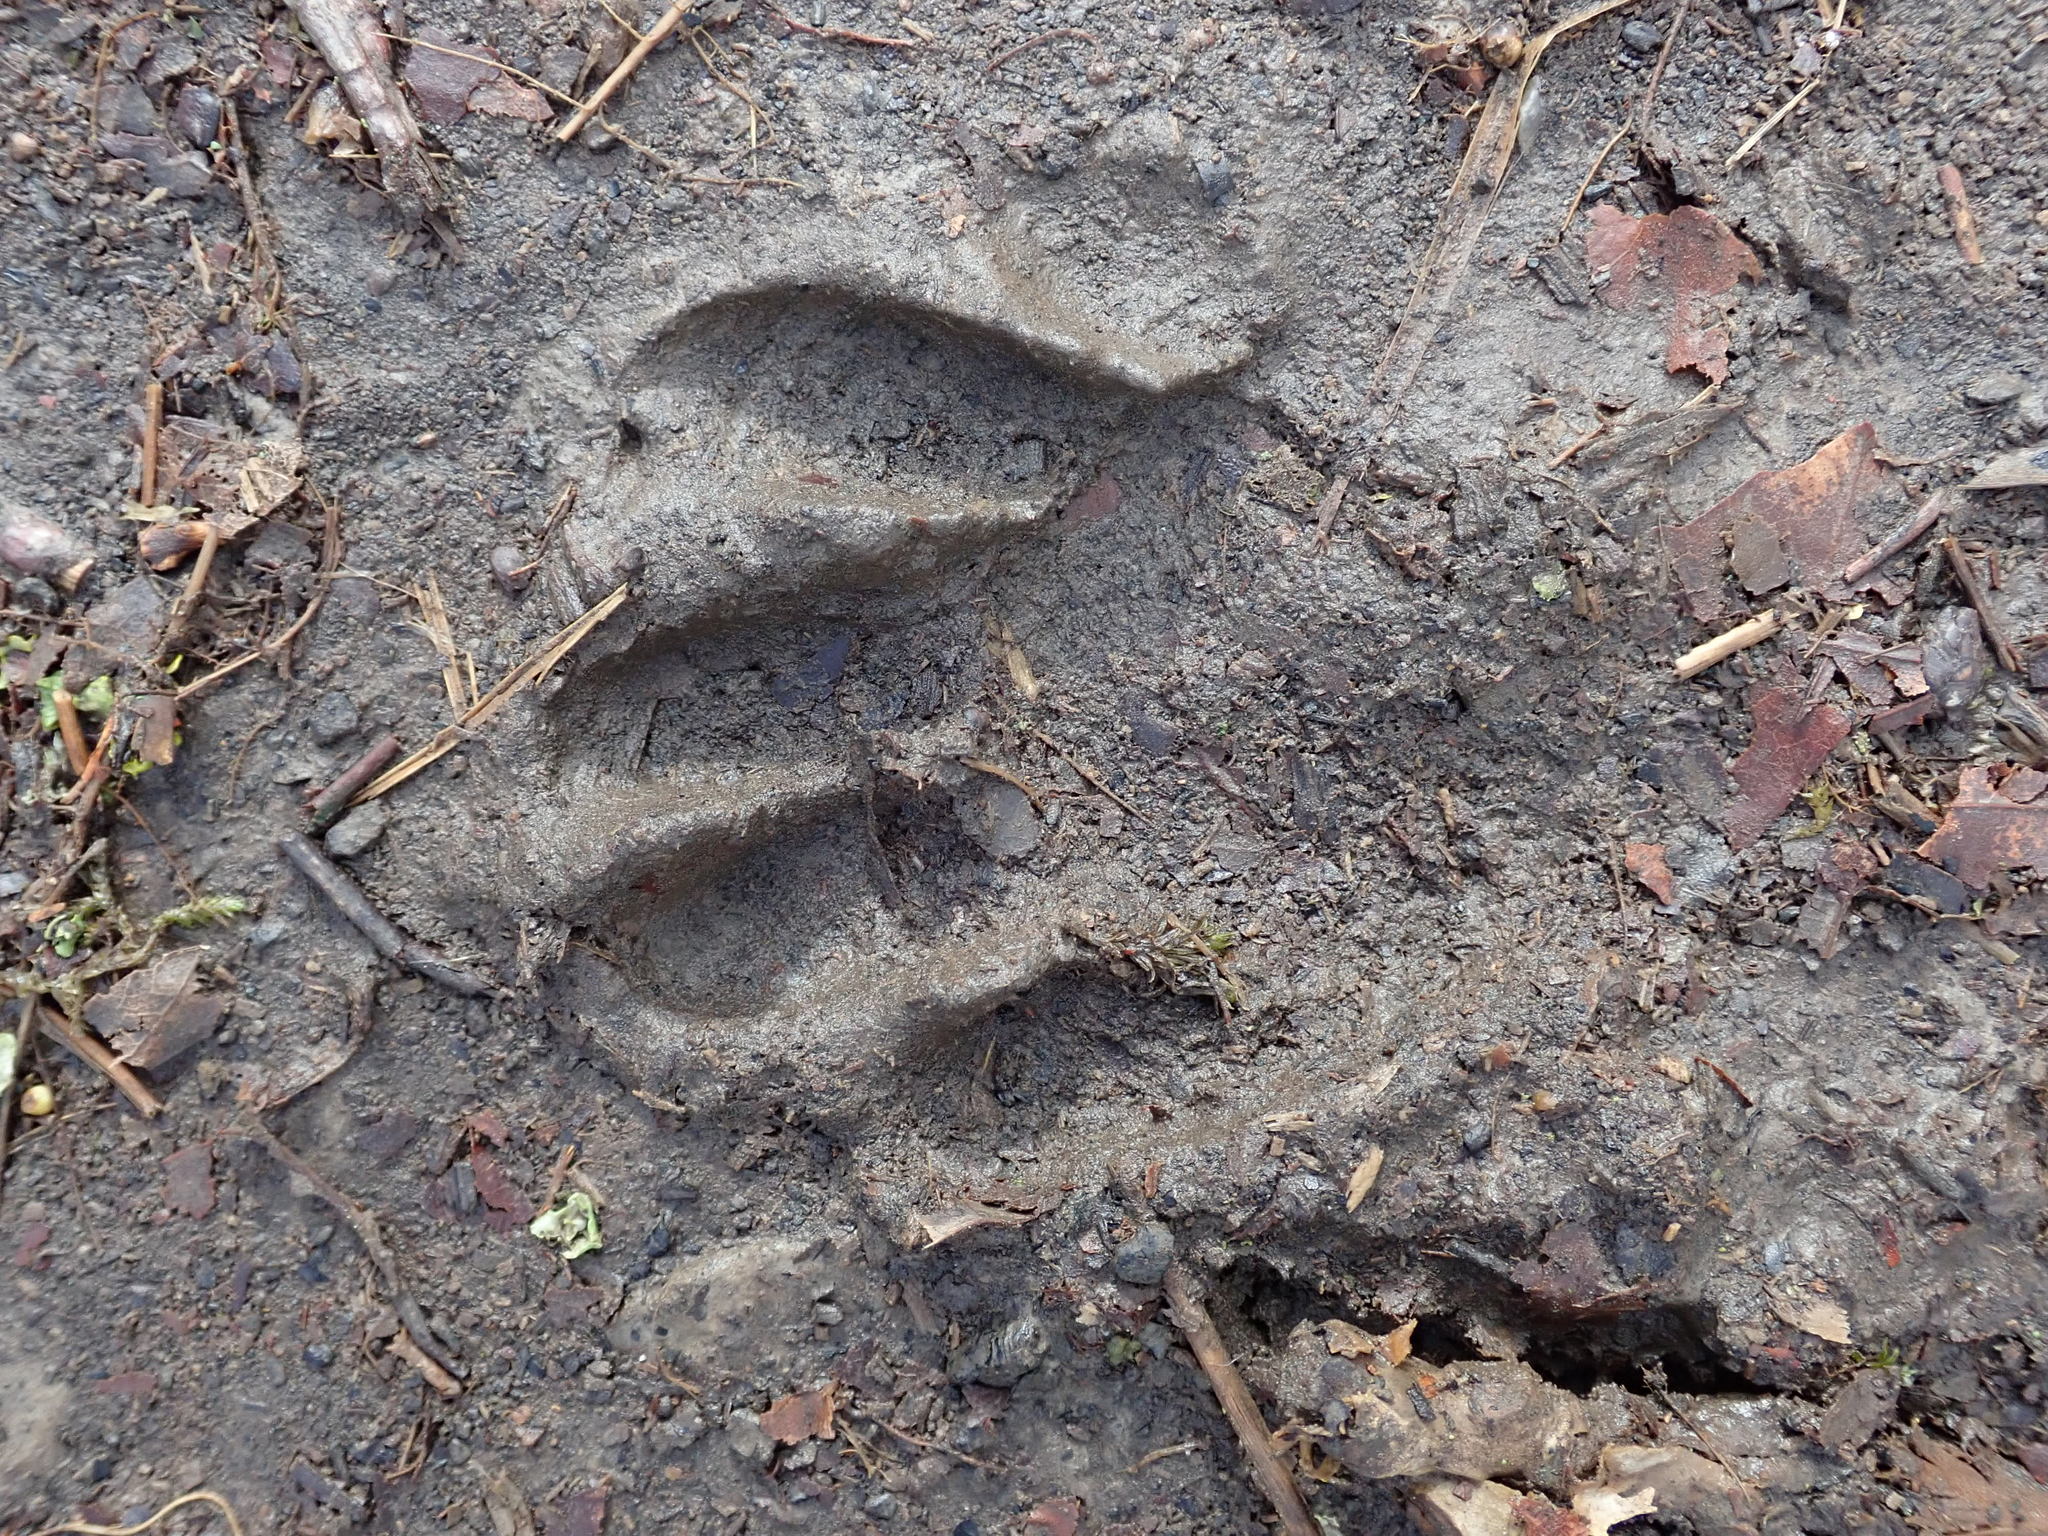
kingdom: Animalia
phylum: Chordata
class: Mammalia
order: Carnivora
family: Procyonidae
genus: Procyon
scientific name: Procyon lotor
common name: Raccoon
